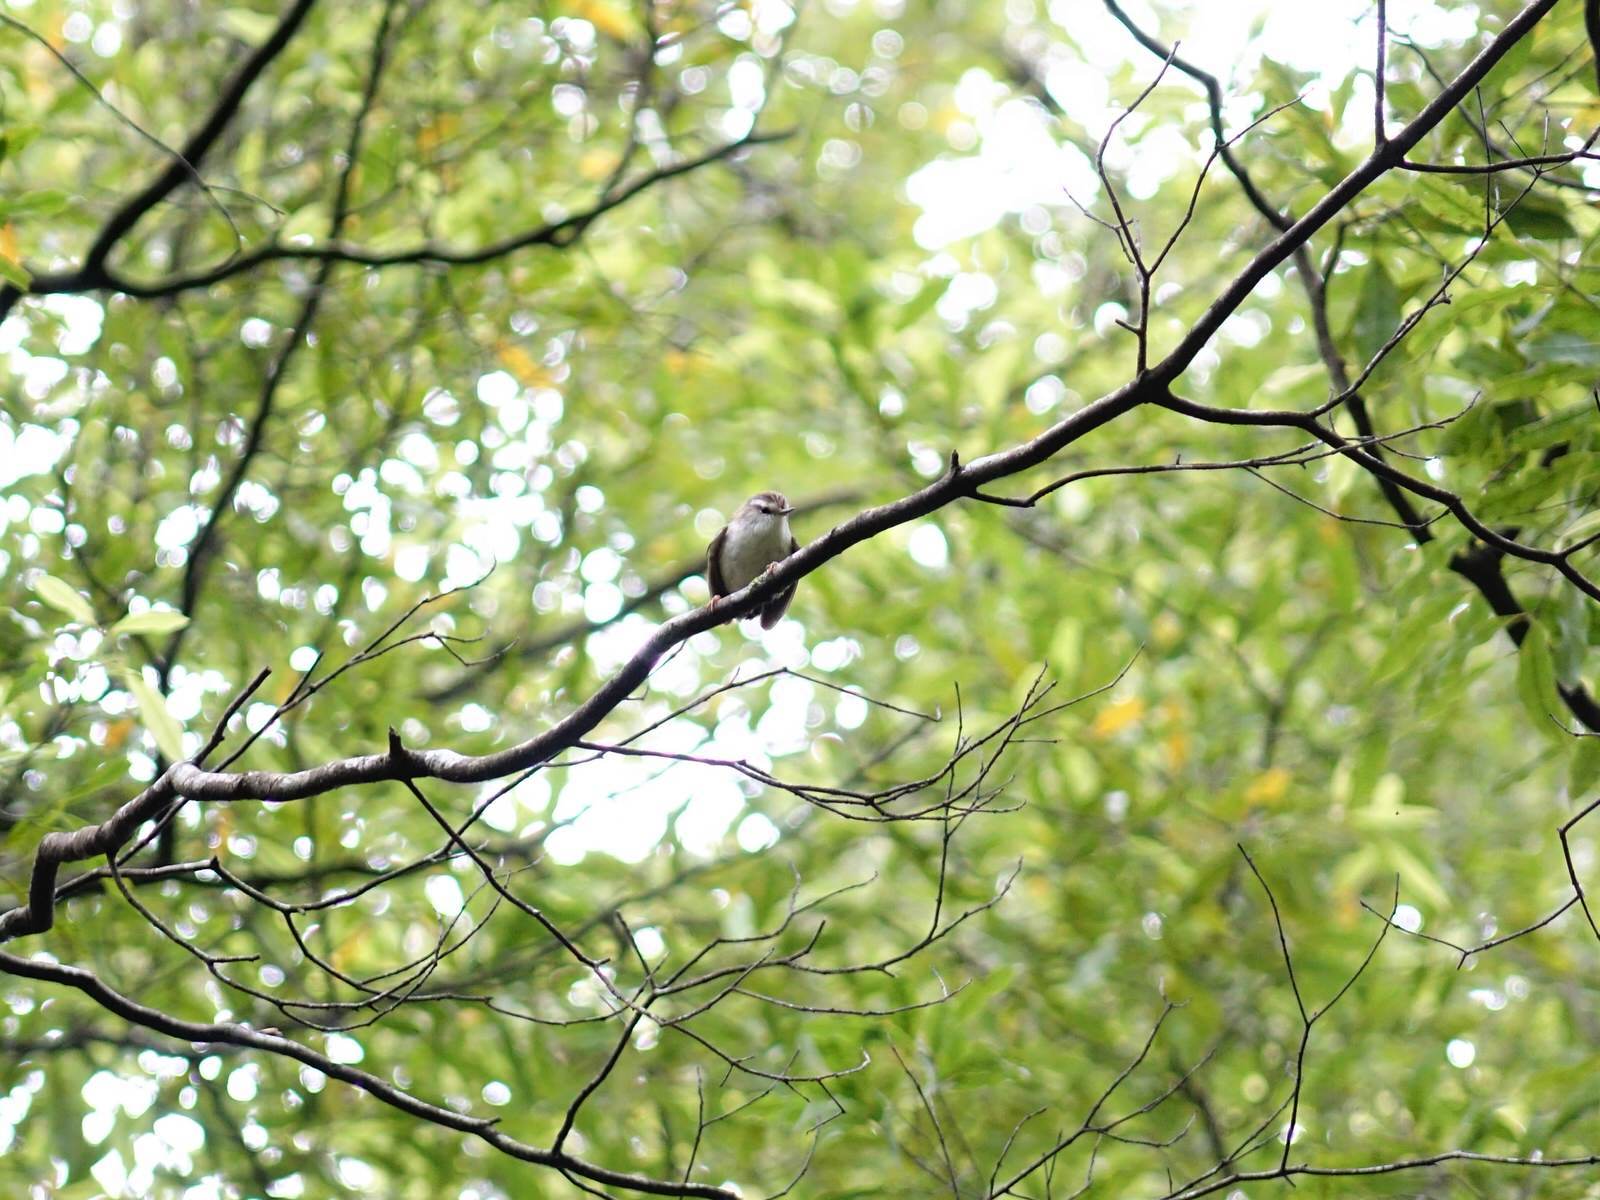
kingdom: Animalia
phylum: Chordata
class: Aves
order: Passeriformes
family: Acanthisittidae
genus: Acanthisitta
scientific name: Acanthisitta chloris
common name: Rifleman
